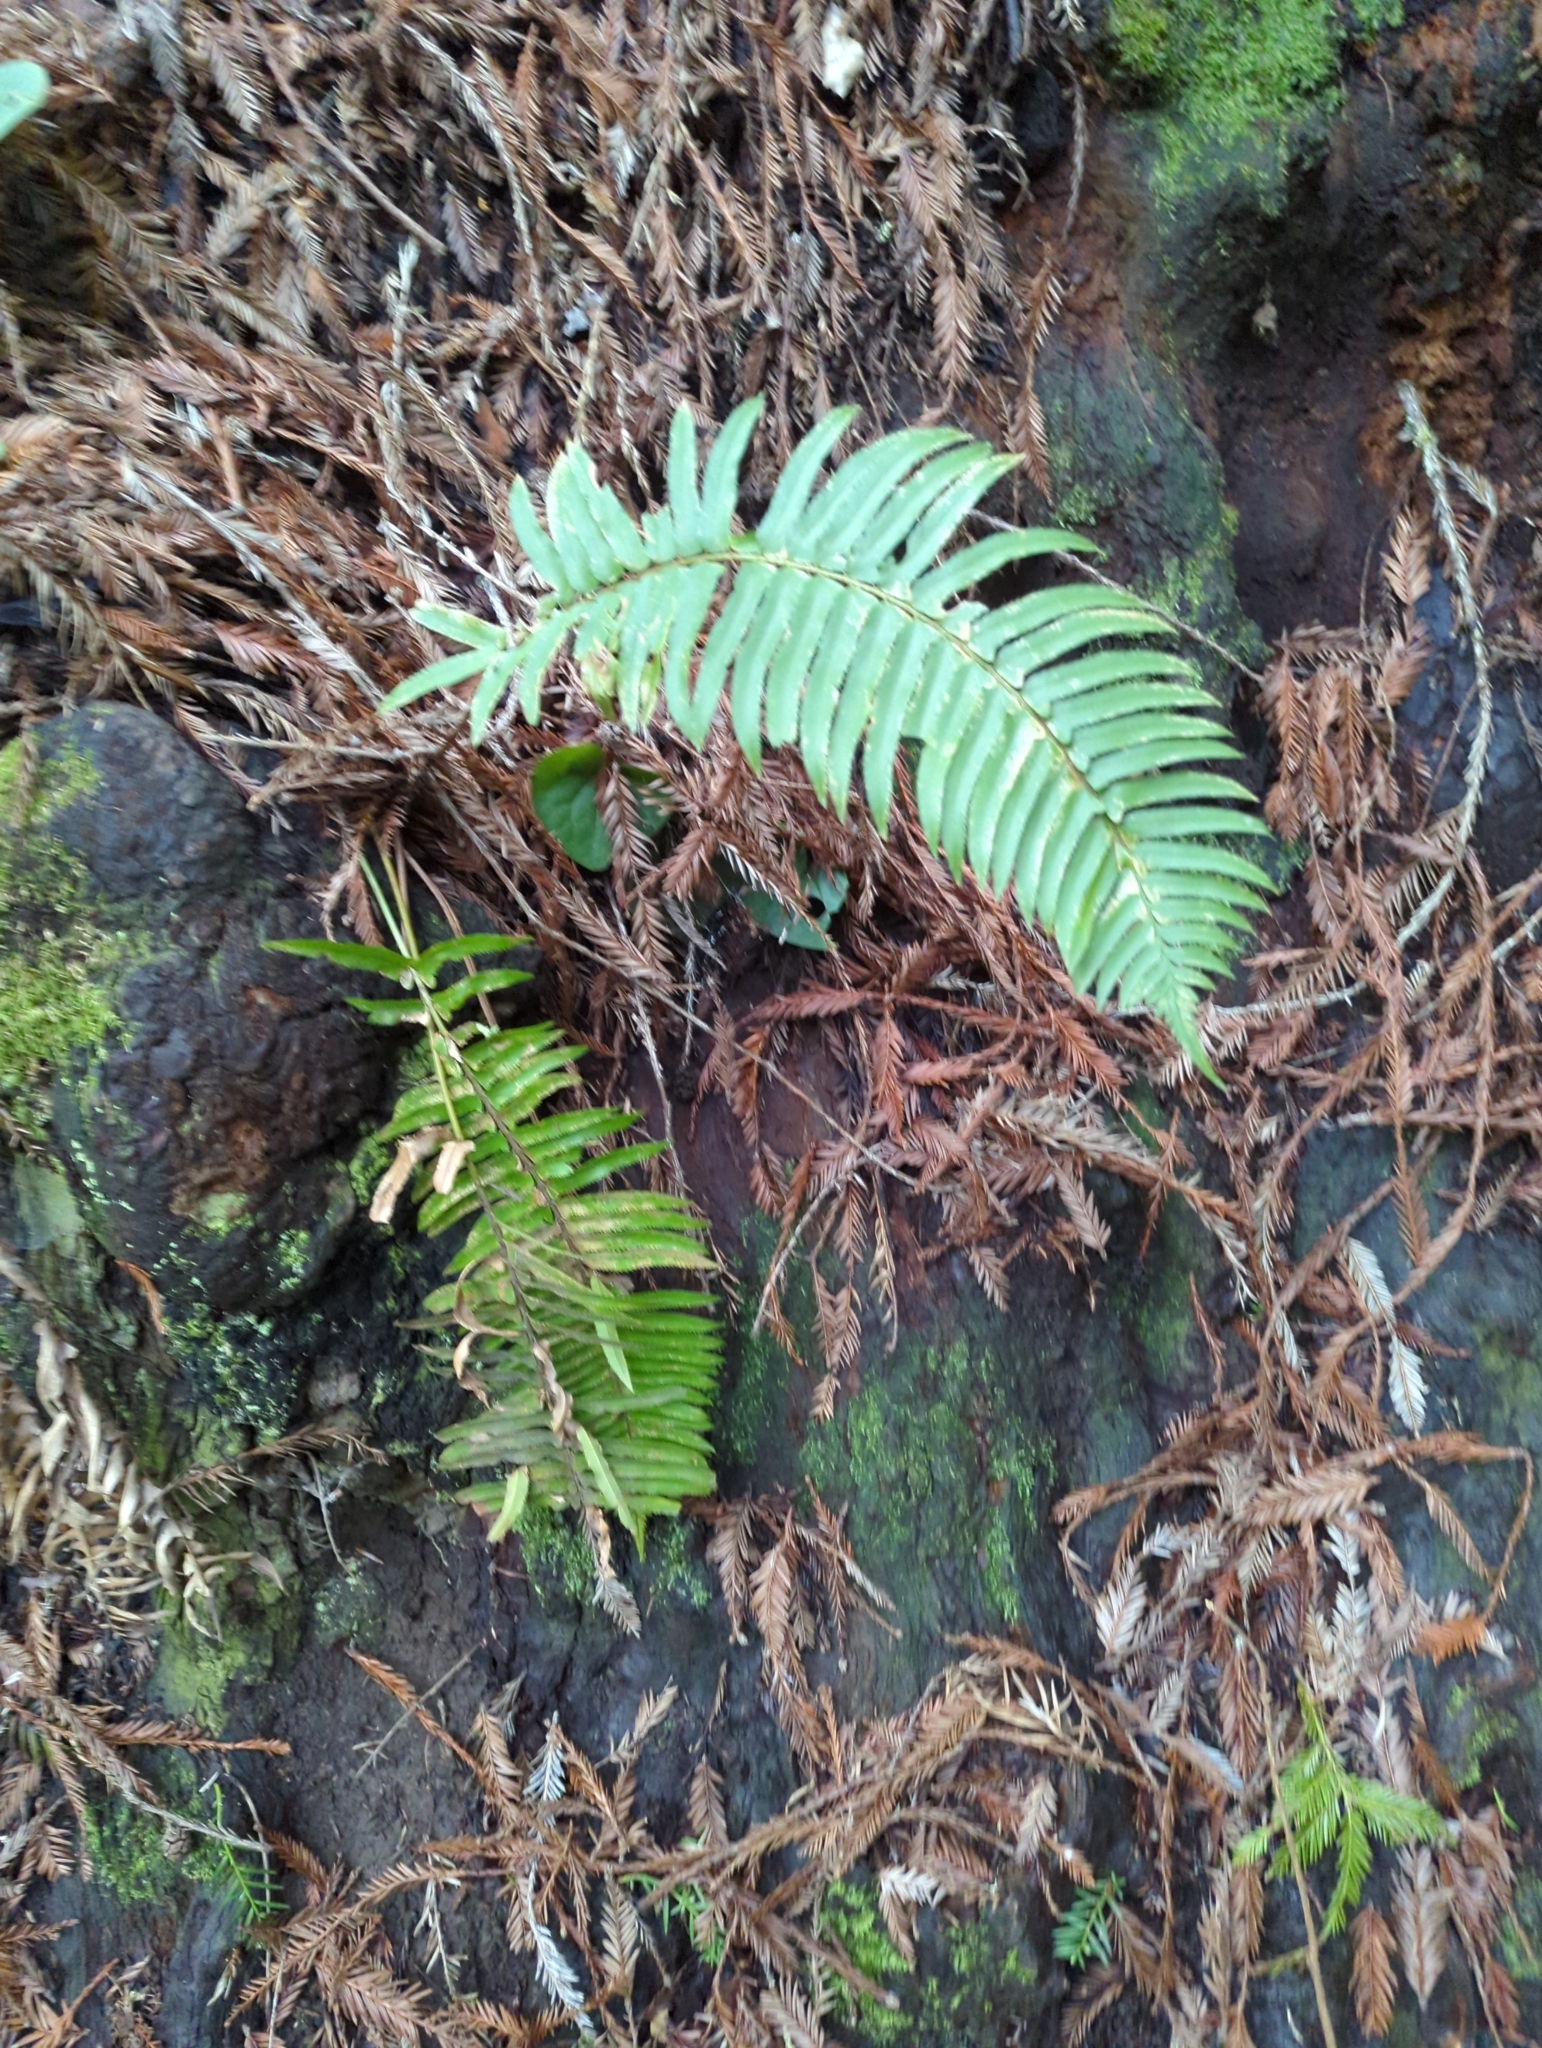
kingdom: Plantae
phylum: Tracheophyta
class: Polypodiopsida
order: Polypodiales
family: Dryopteridaceae
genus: Polystichum
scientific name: Polystichum munitum
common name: Western sword-fern
